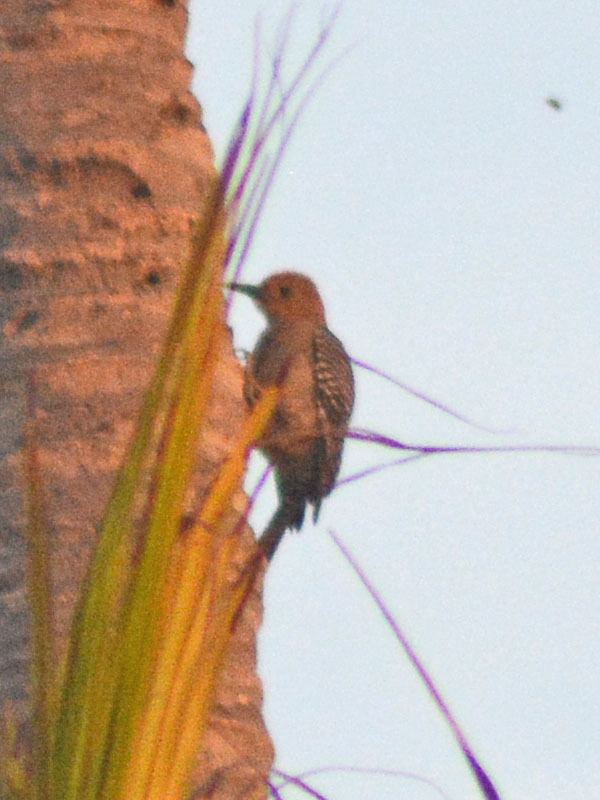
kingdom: Animalia
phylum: Chordata
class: Aves
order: Piciformes
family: Picidae
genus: Melanerpes
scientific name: Melanerpes uropygialis
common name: Gila woodpecker
